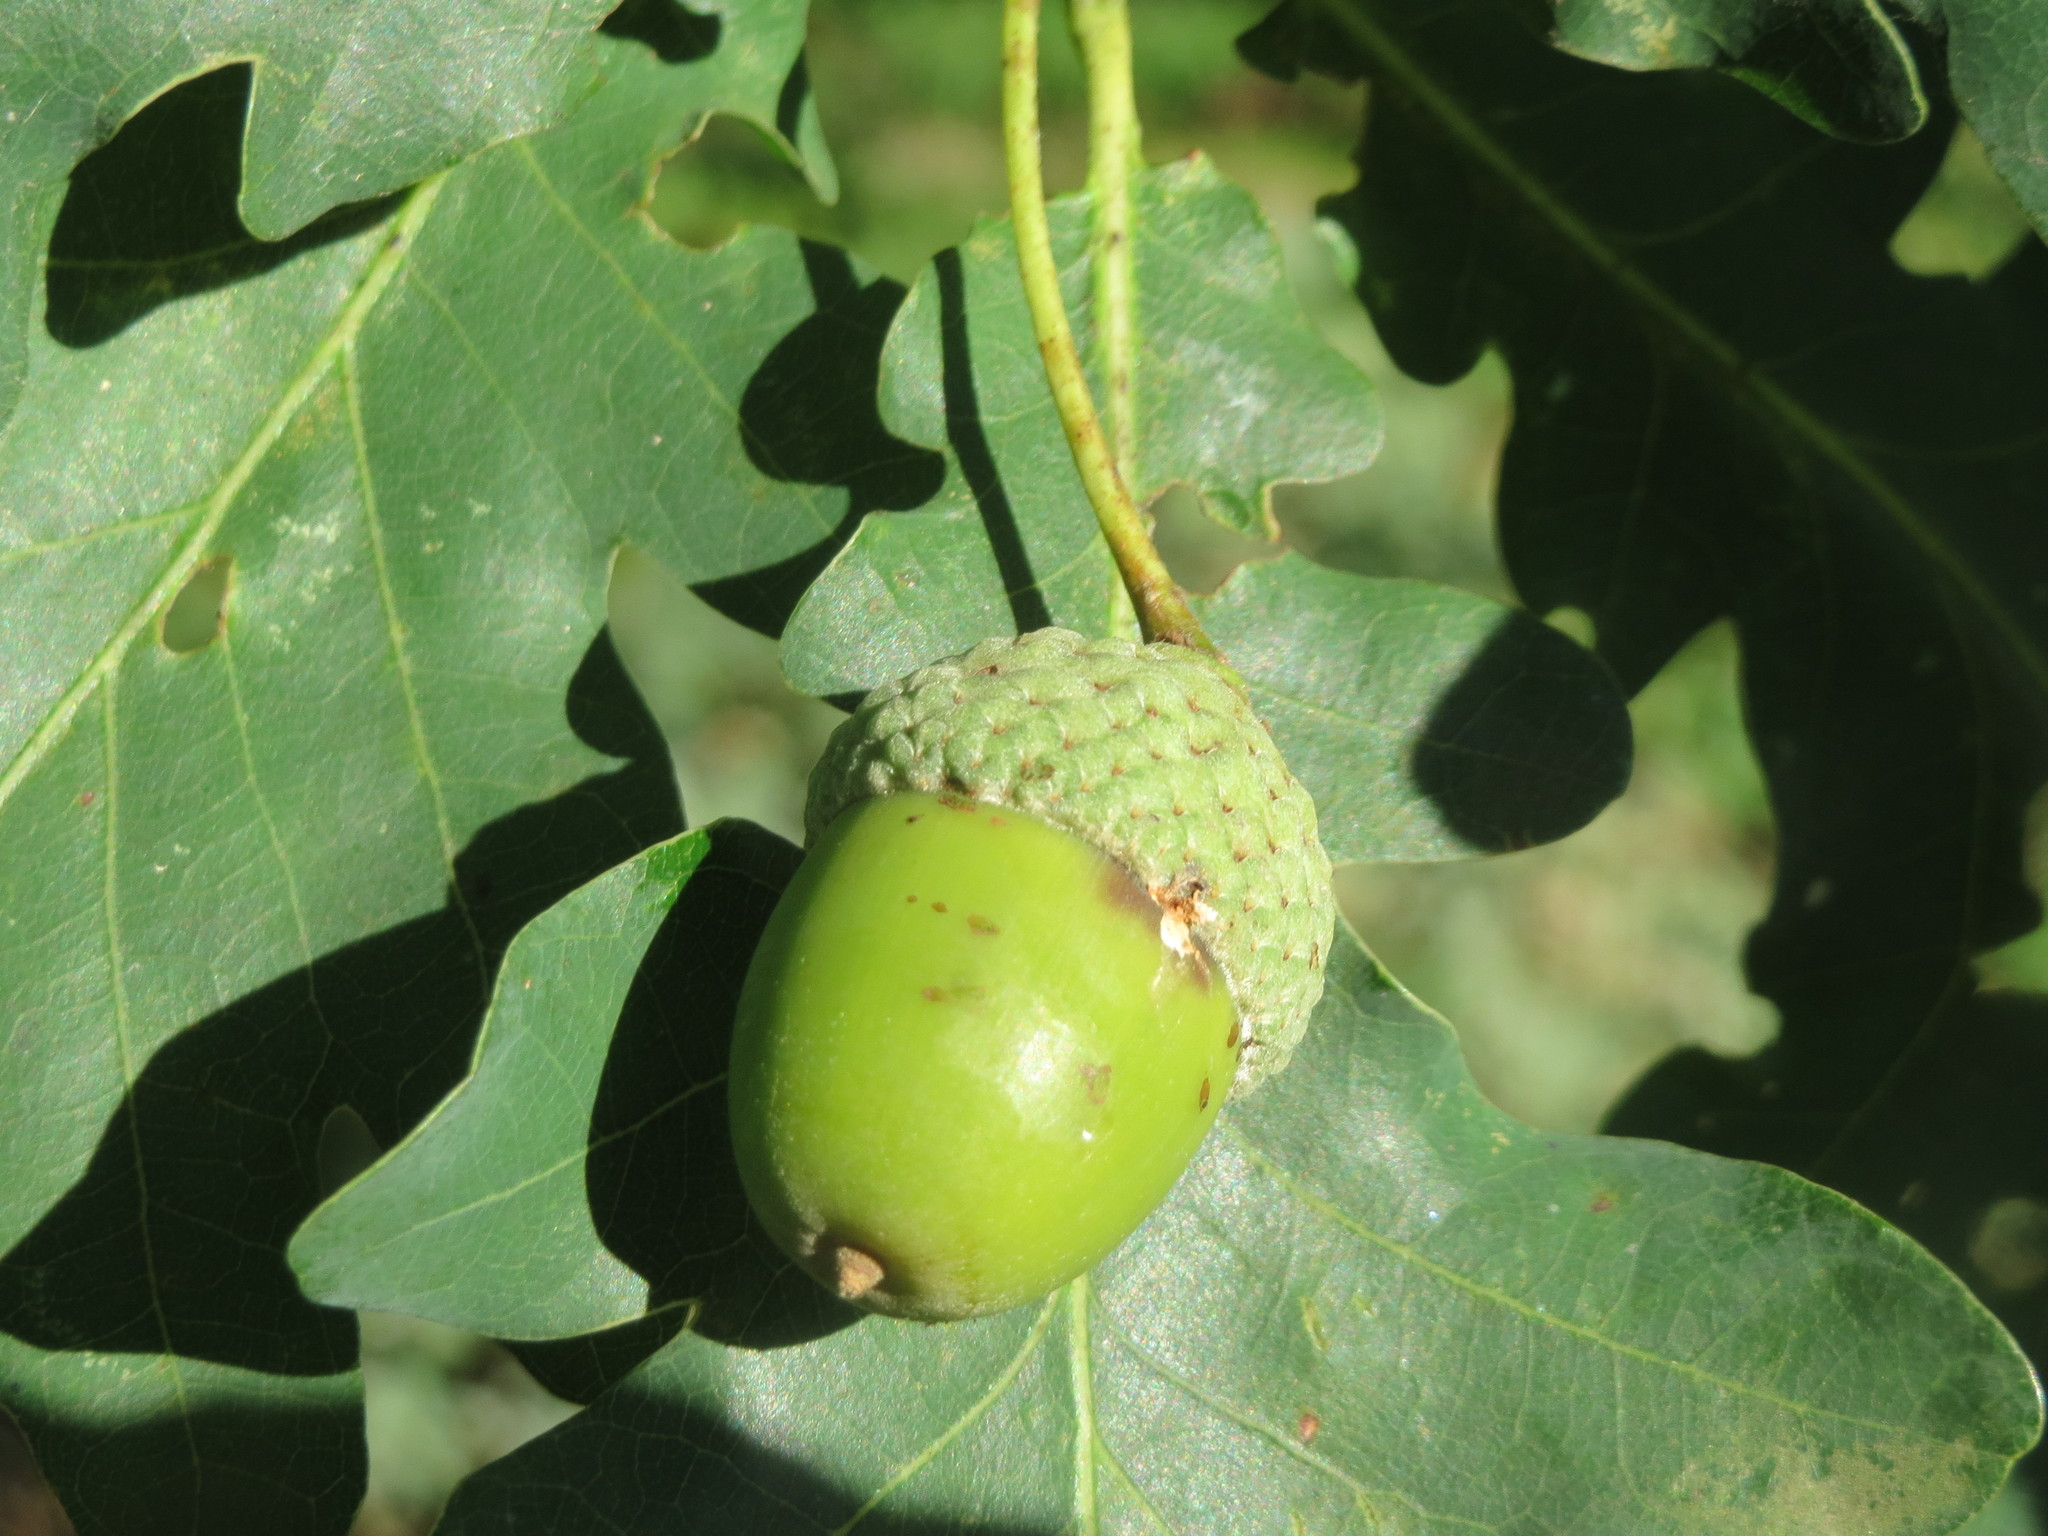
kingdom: Plantae
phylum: Tracheophyta
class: Magnoliopsida
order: Fagales
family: Fagaceae
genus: Quercus
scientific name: Quercus robur
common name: Pedunculate oak
